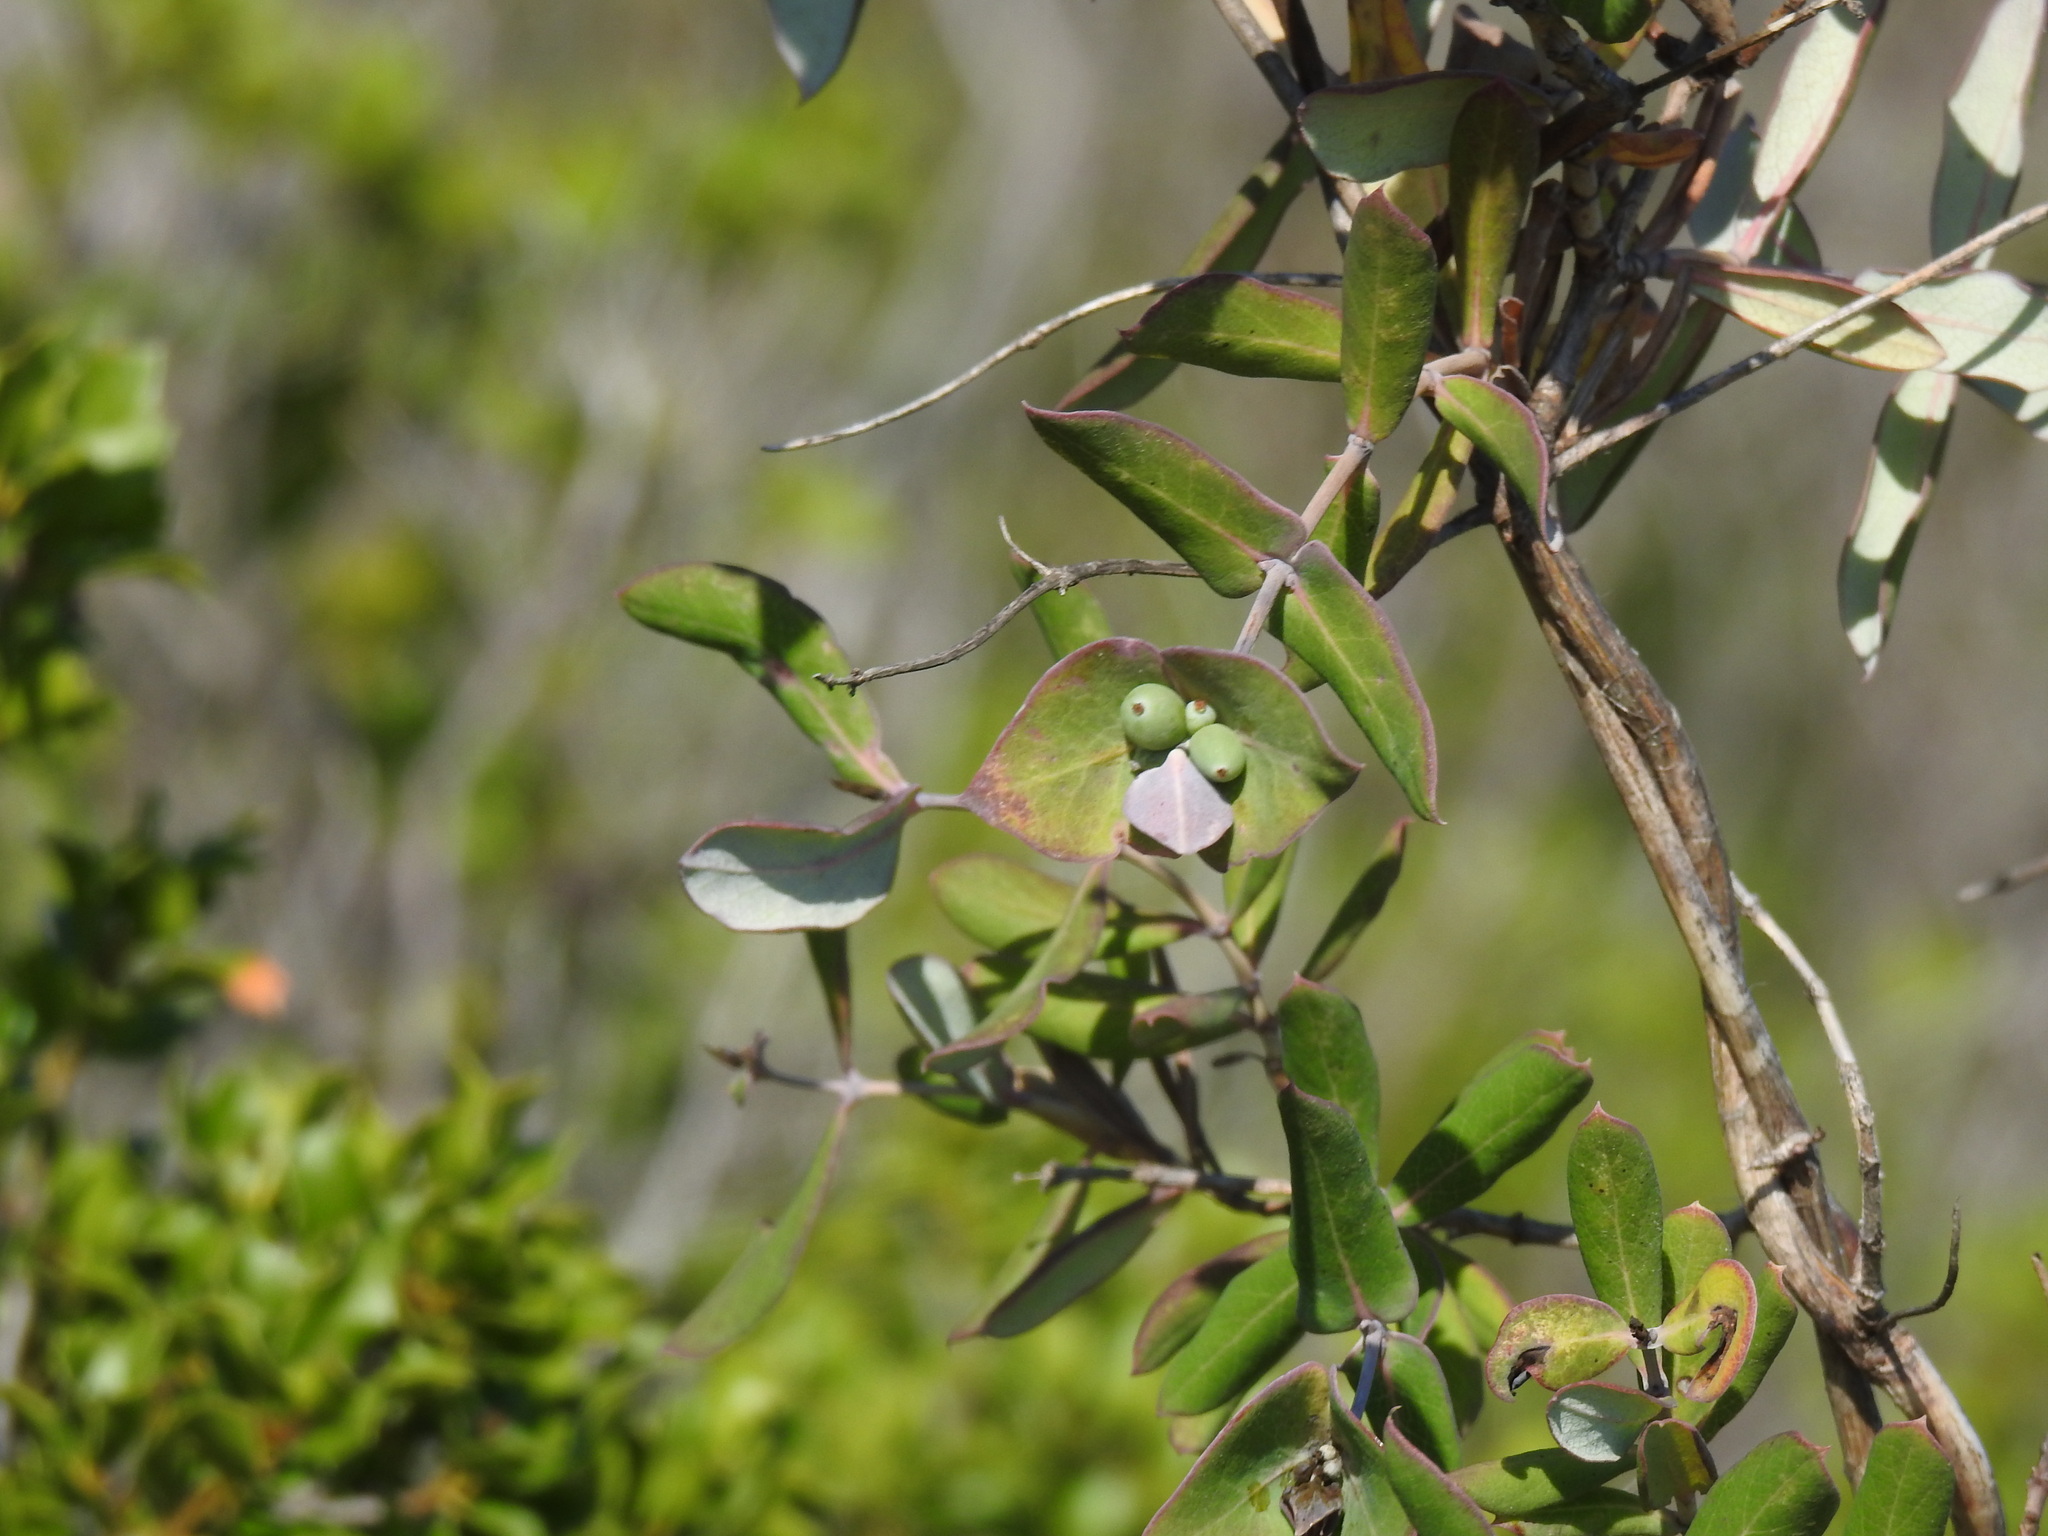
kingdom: Plantae
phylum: Tracheophyta
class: Magnoliopsida
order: Dipsacales
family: Caprifoliaceae
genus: Lonicera
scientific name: Lonicera implexa
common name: Minorca honeysuckle
